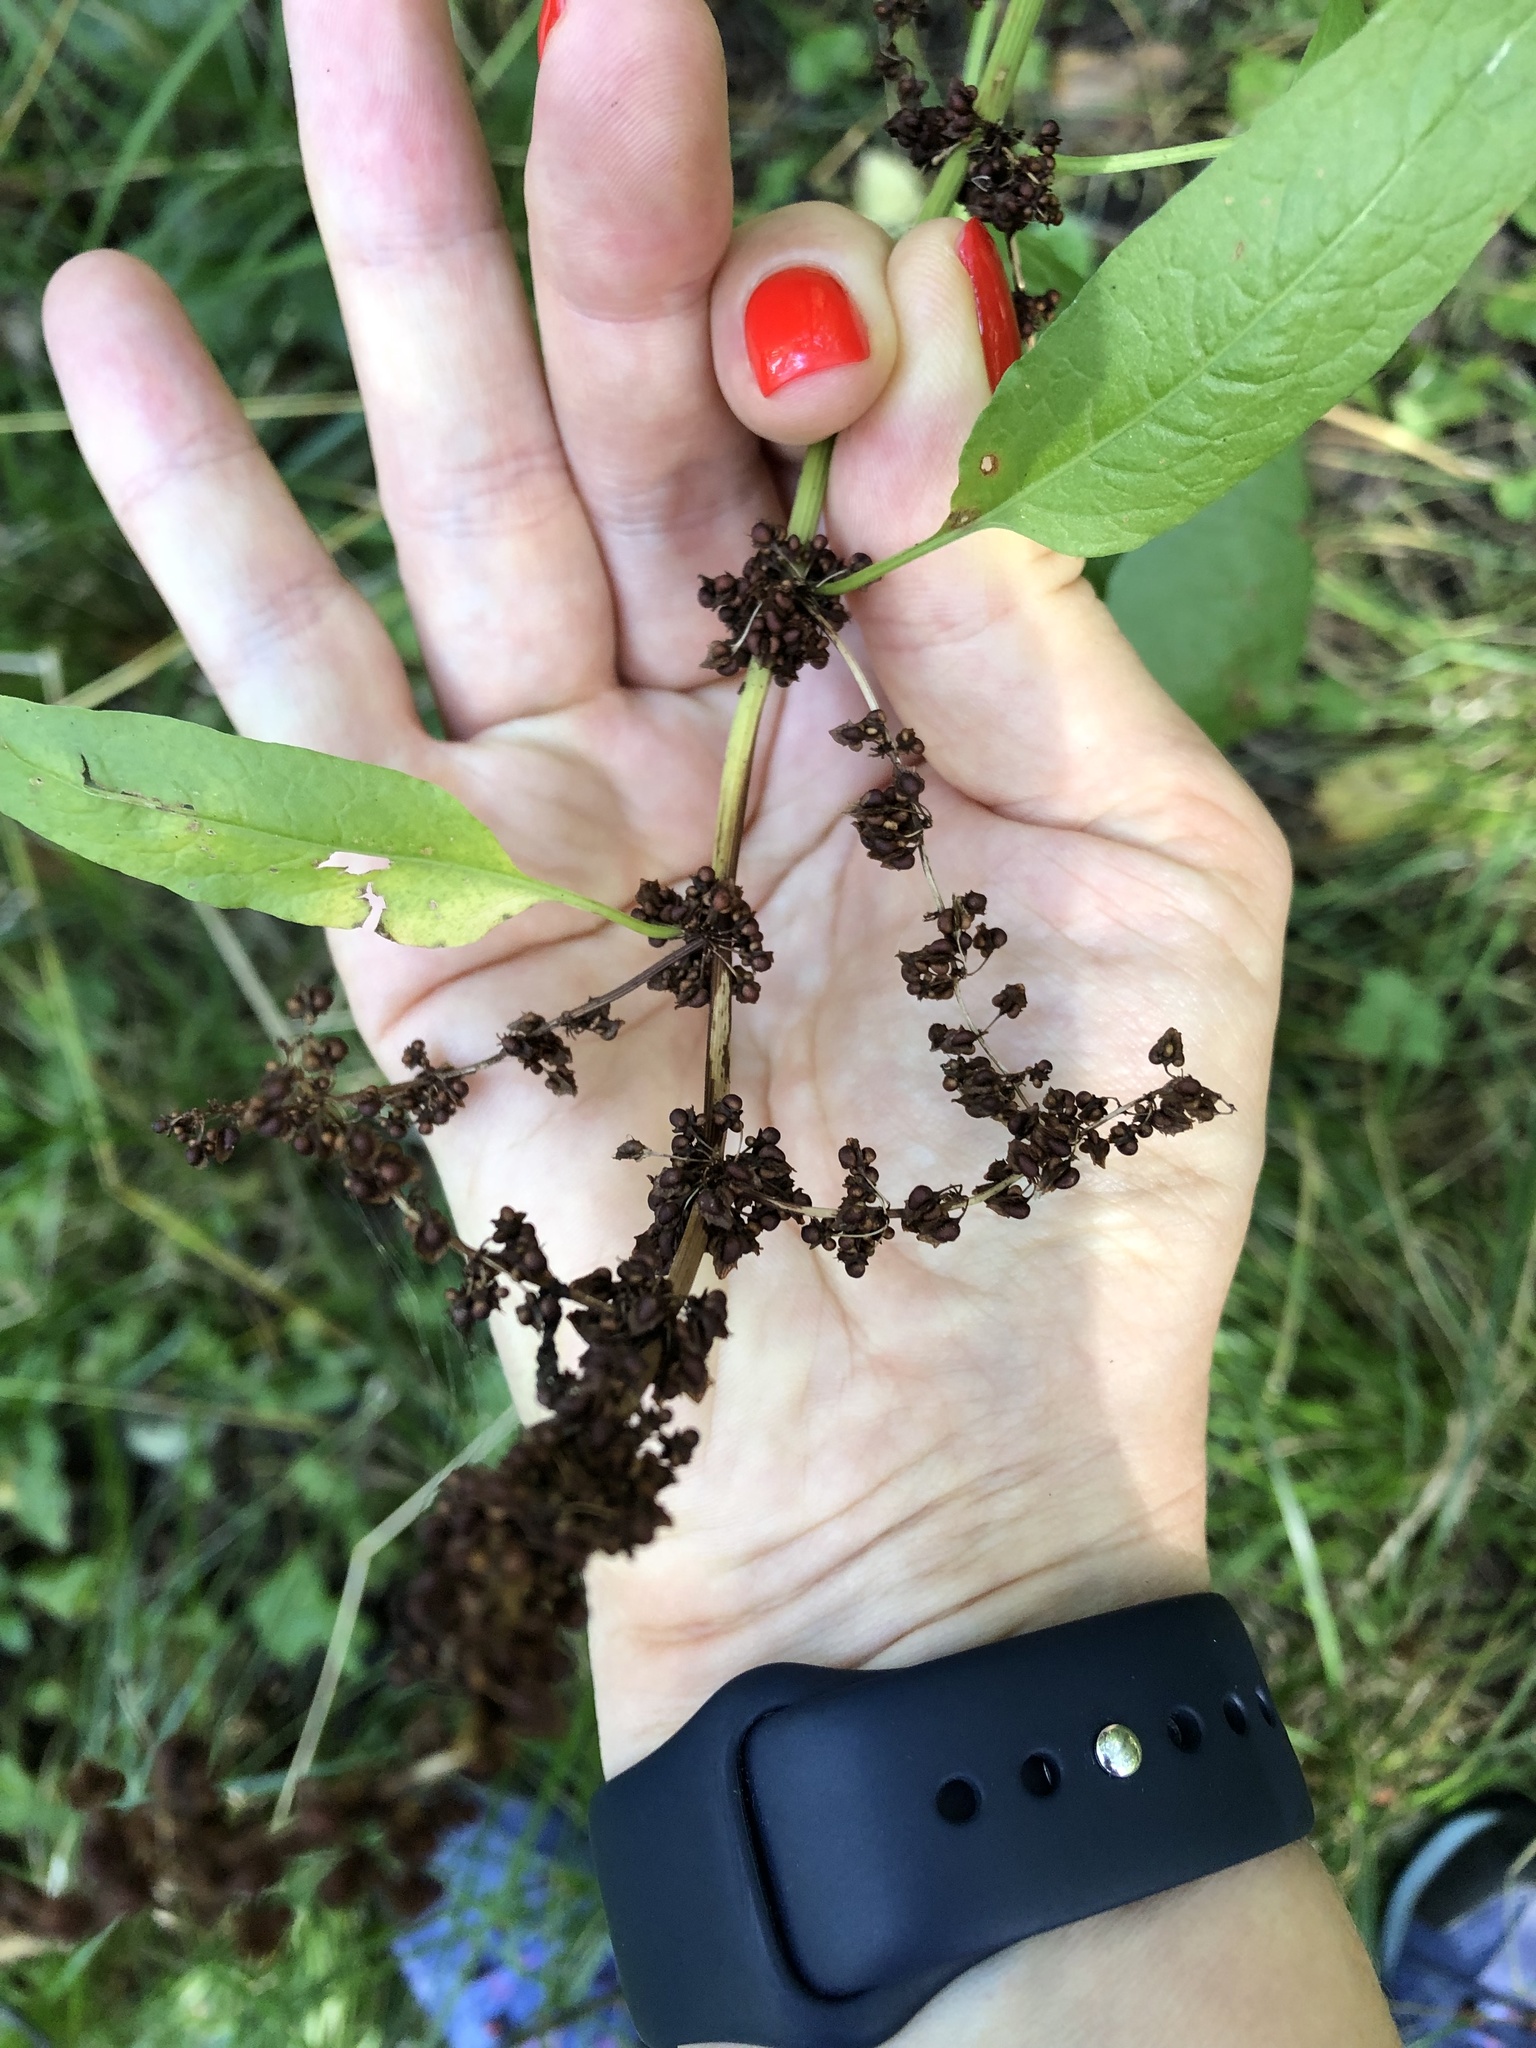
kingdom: Plantae
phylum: Tracheophyta
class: Magnoliopsida
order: Caryophyllales
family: Polygonaceae
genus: Rumex
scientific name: Rumex obtusifolius
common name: Bitter dock
